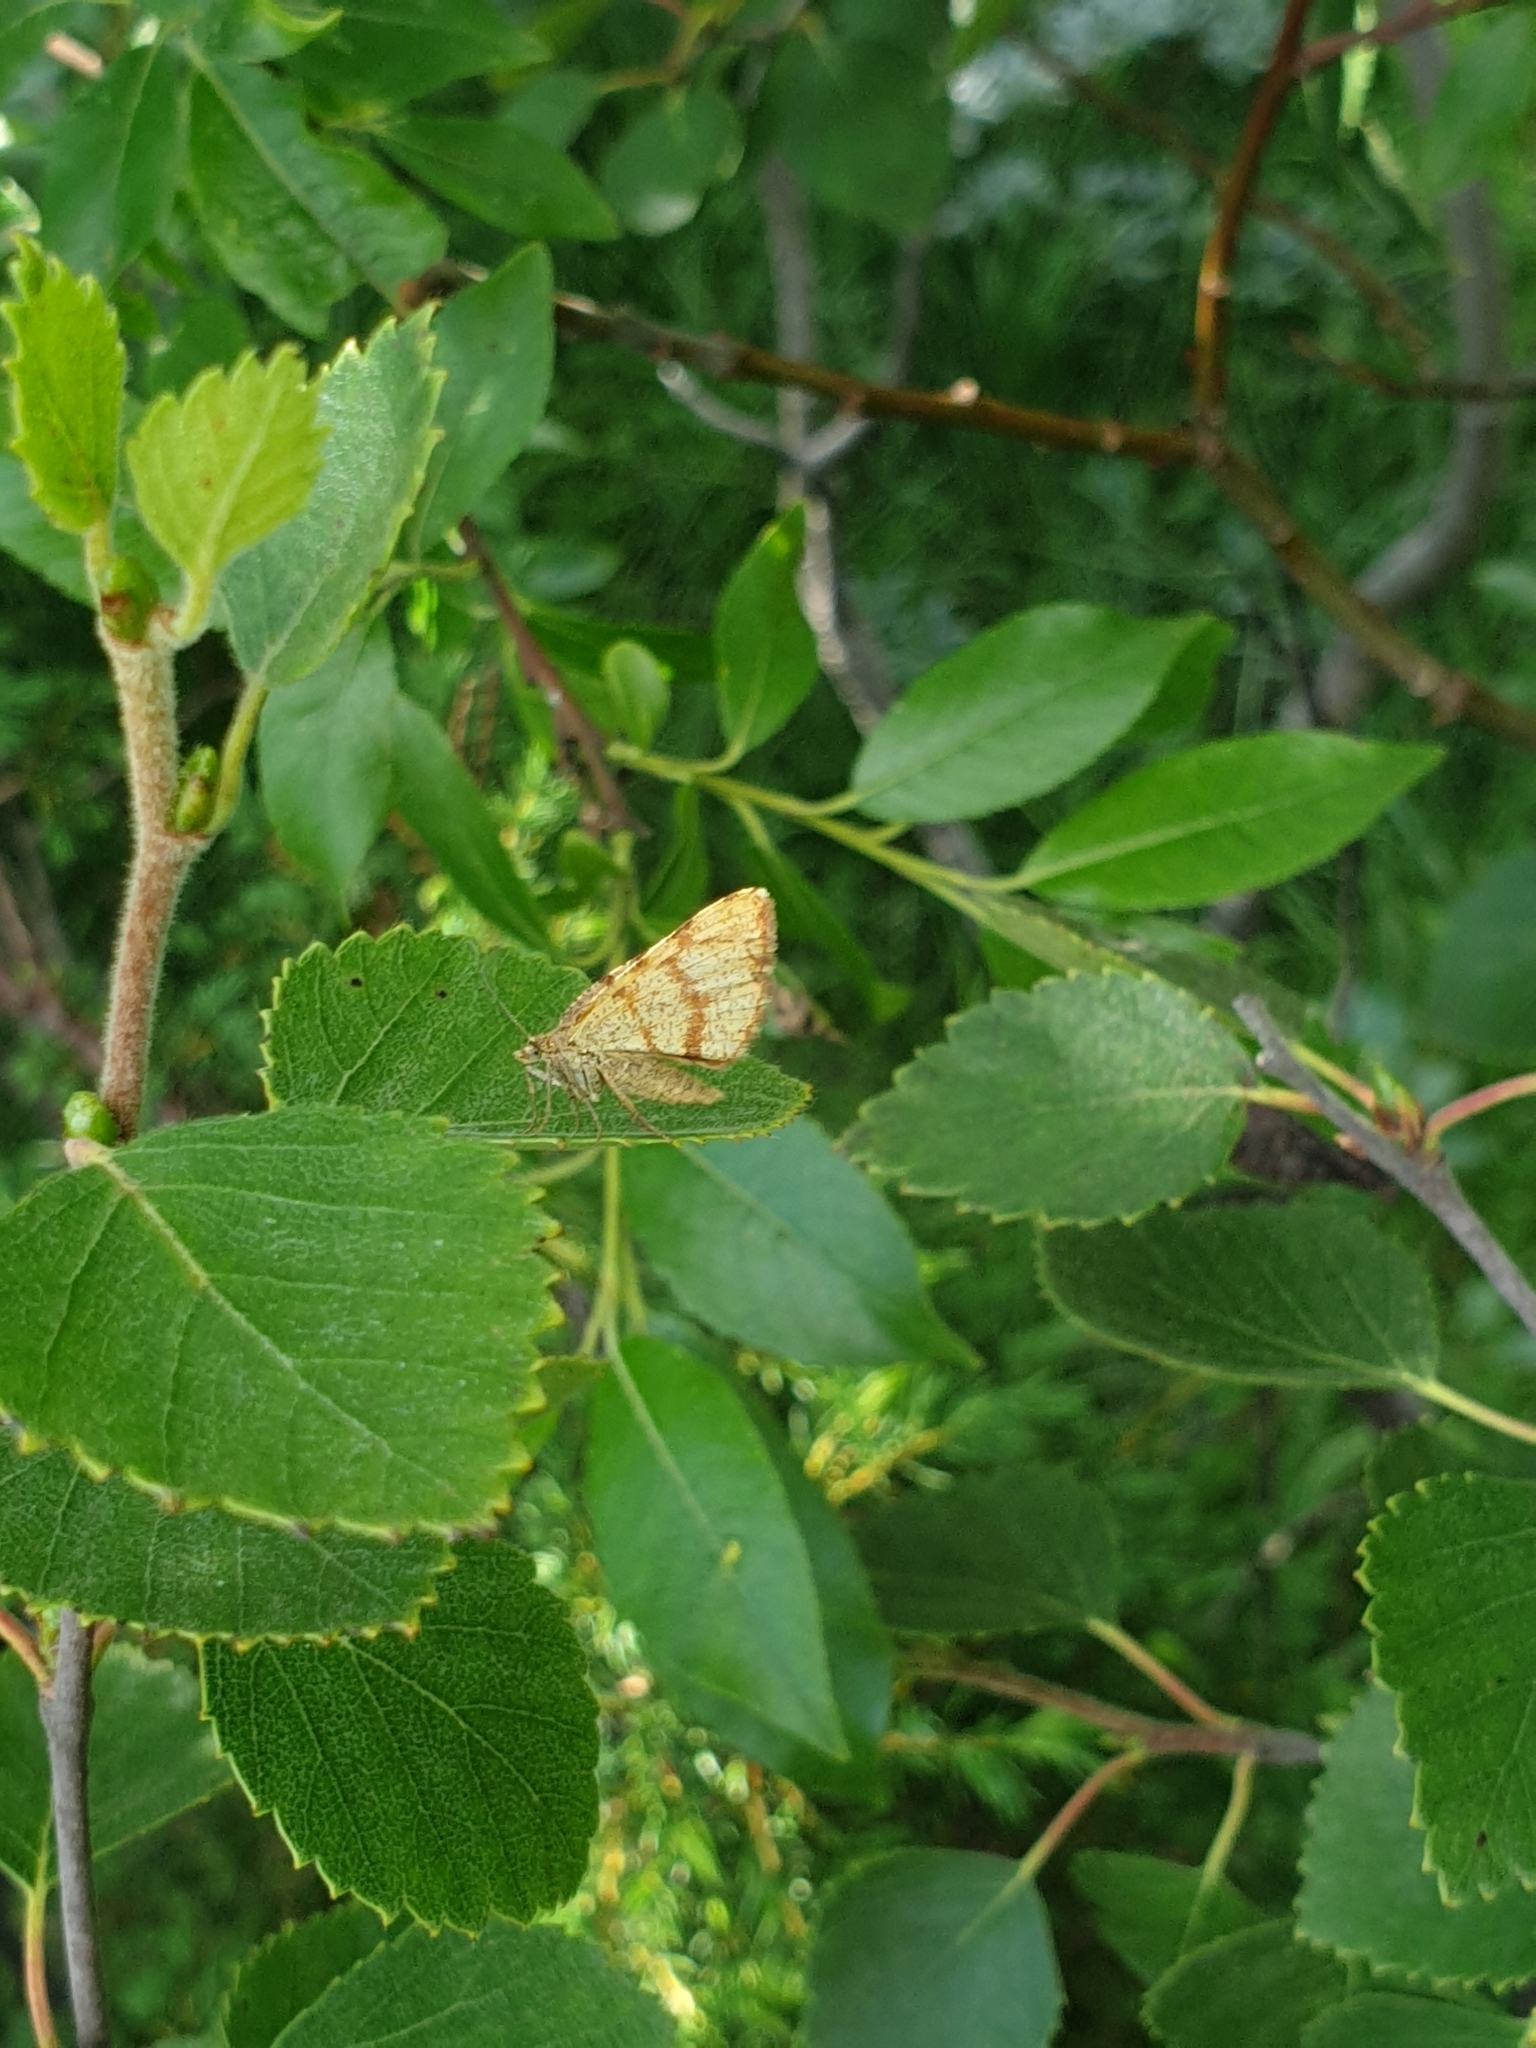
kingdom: Animalia
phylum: Arthropoda
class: Insecta
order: Lepidoptera
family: Geometridae
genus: Macaria
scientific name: Macaria brunneata
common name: Rannoch looper
